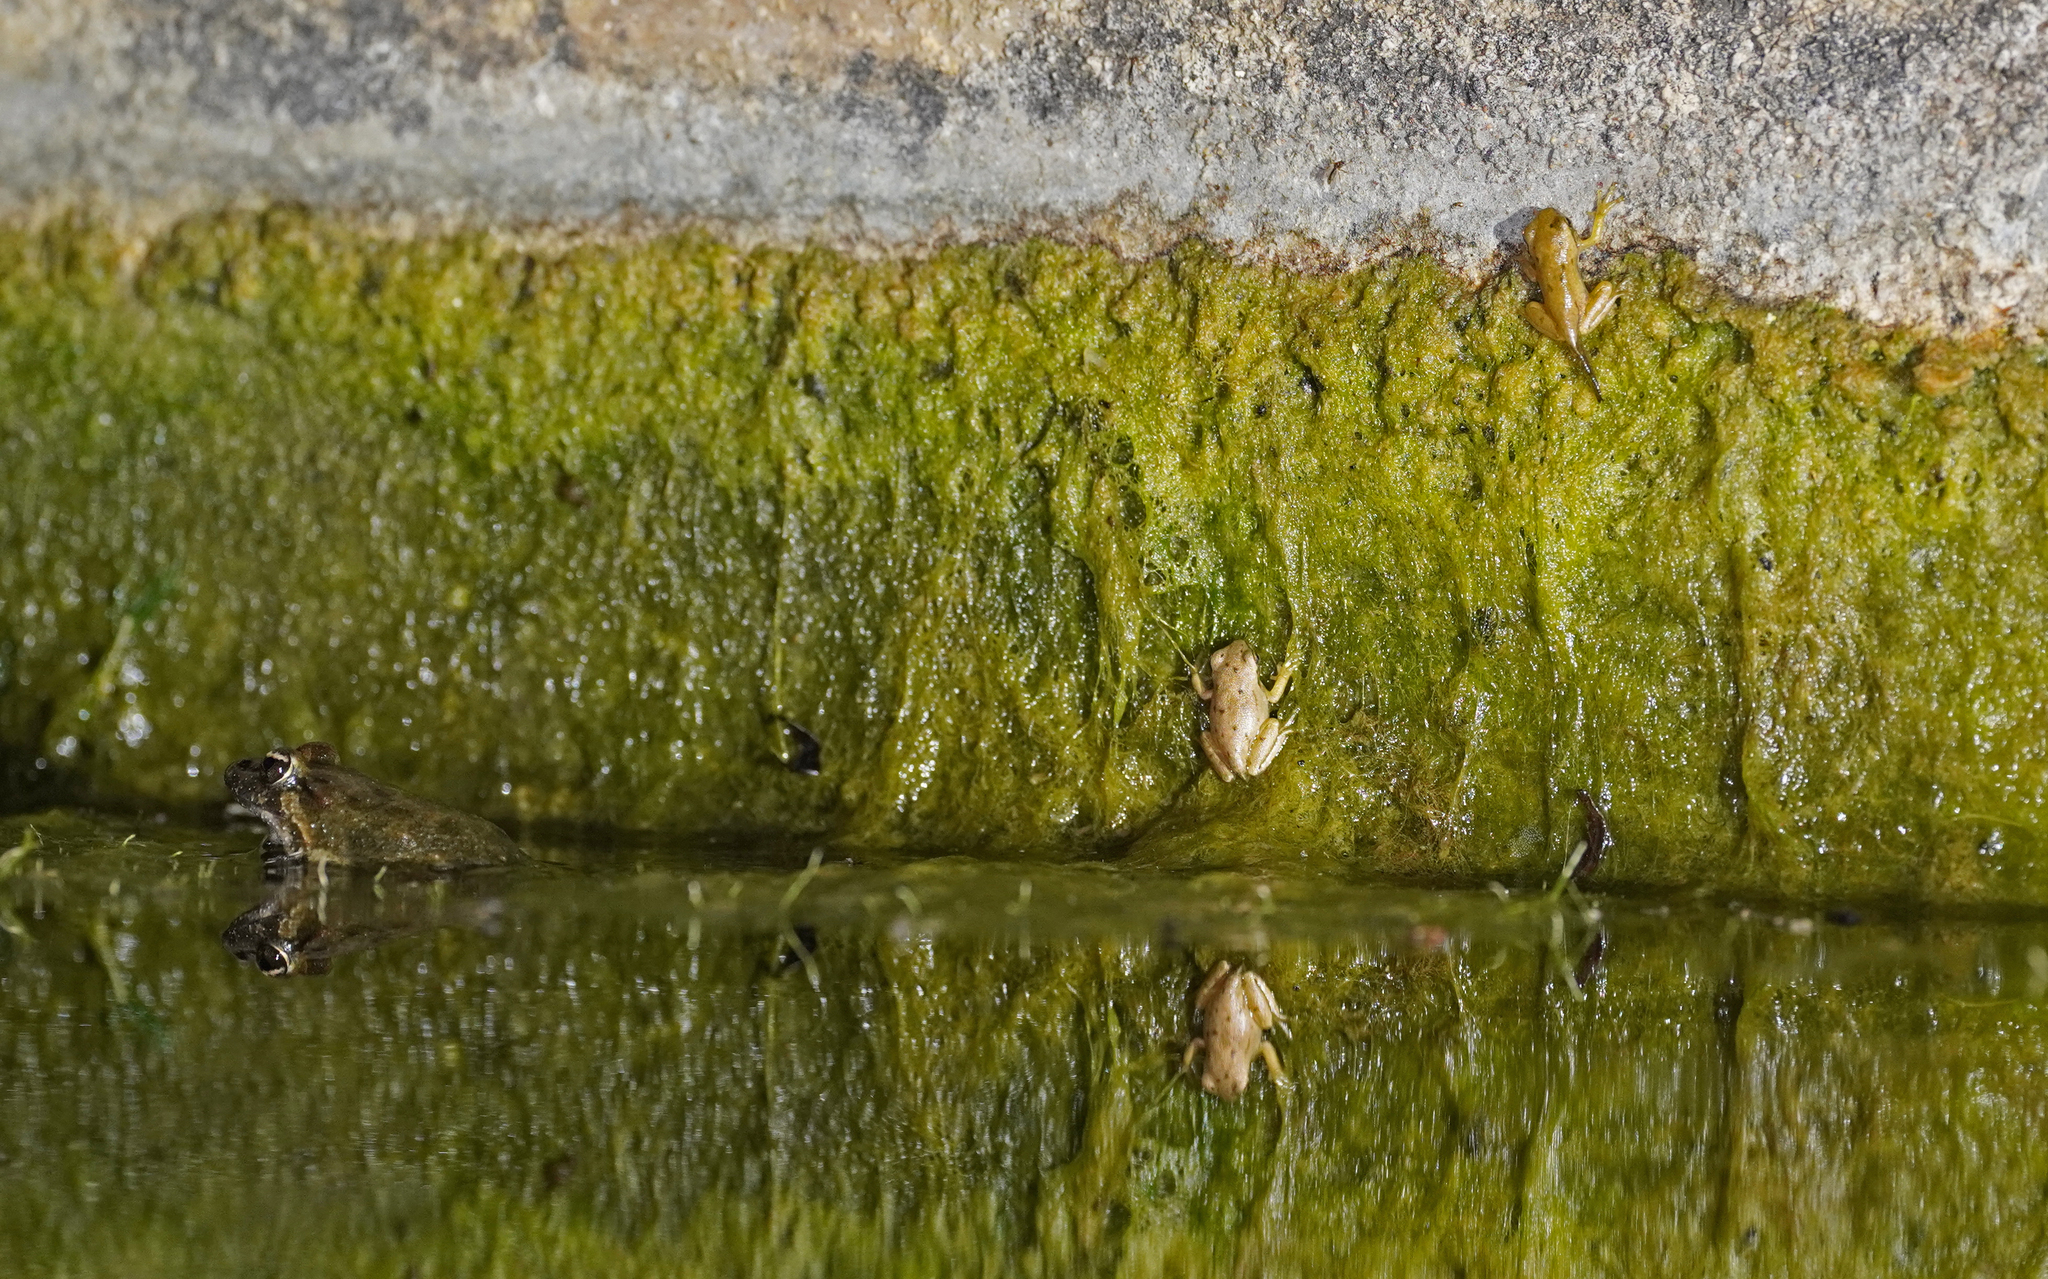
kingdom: Animalia
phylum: Chordata
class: Amphibia
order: Anura
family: Hylidae
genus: Hyla
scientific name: Hyla sarda
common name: Sardinian tree frog
